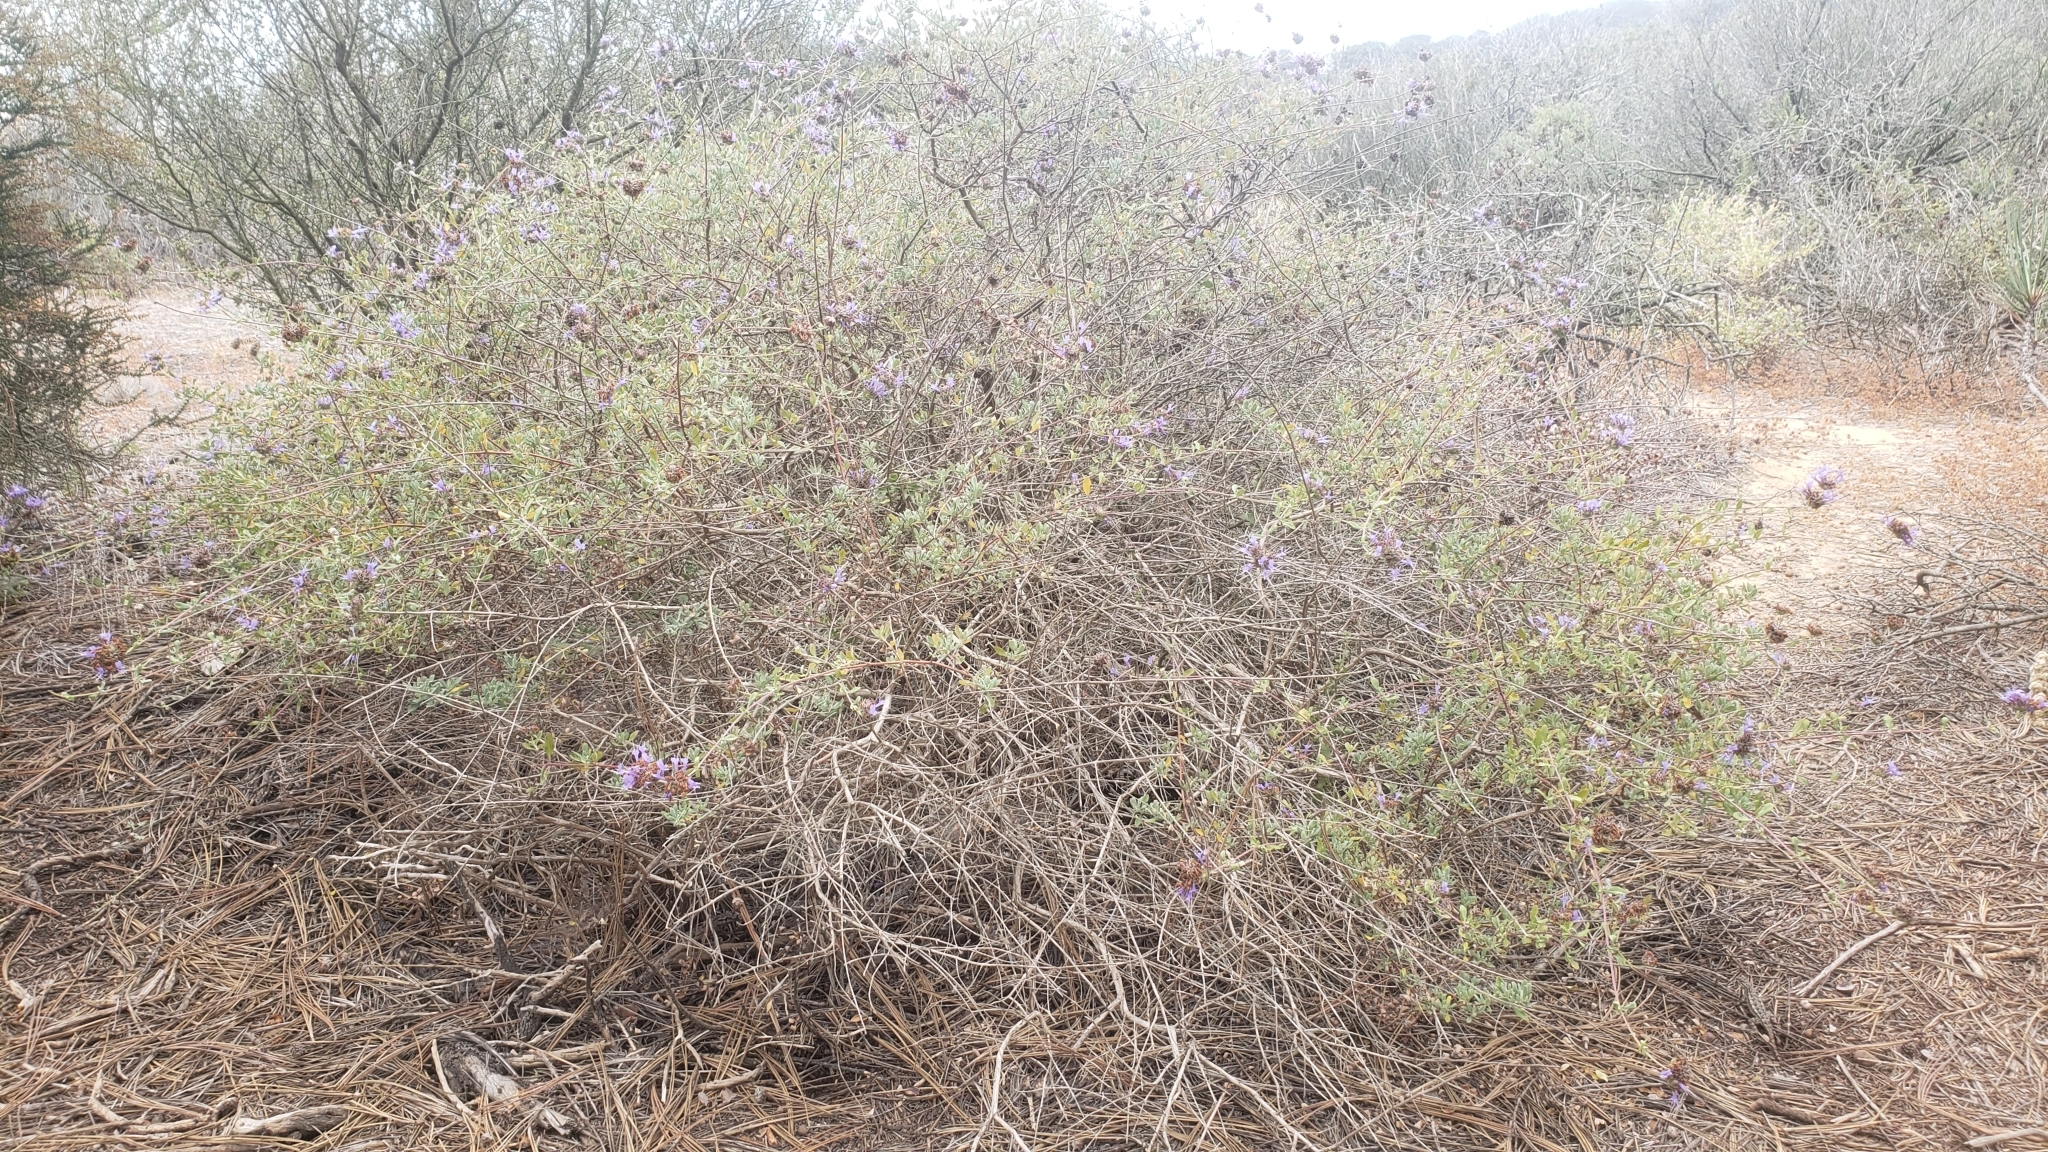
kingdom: Plantae
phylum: Tracheophyta
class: Magnoliopsida
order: Lamiales
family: Lamiaceae
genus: Salvia
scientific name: Salvia clevelandii
